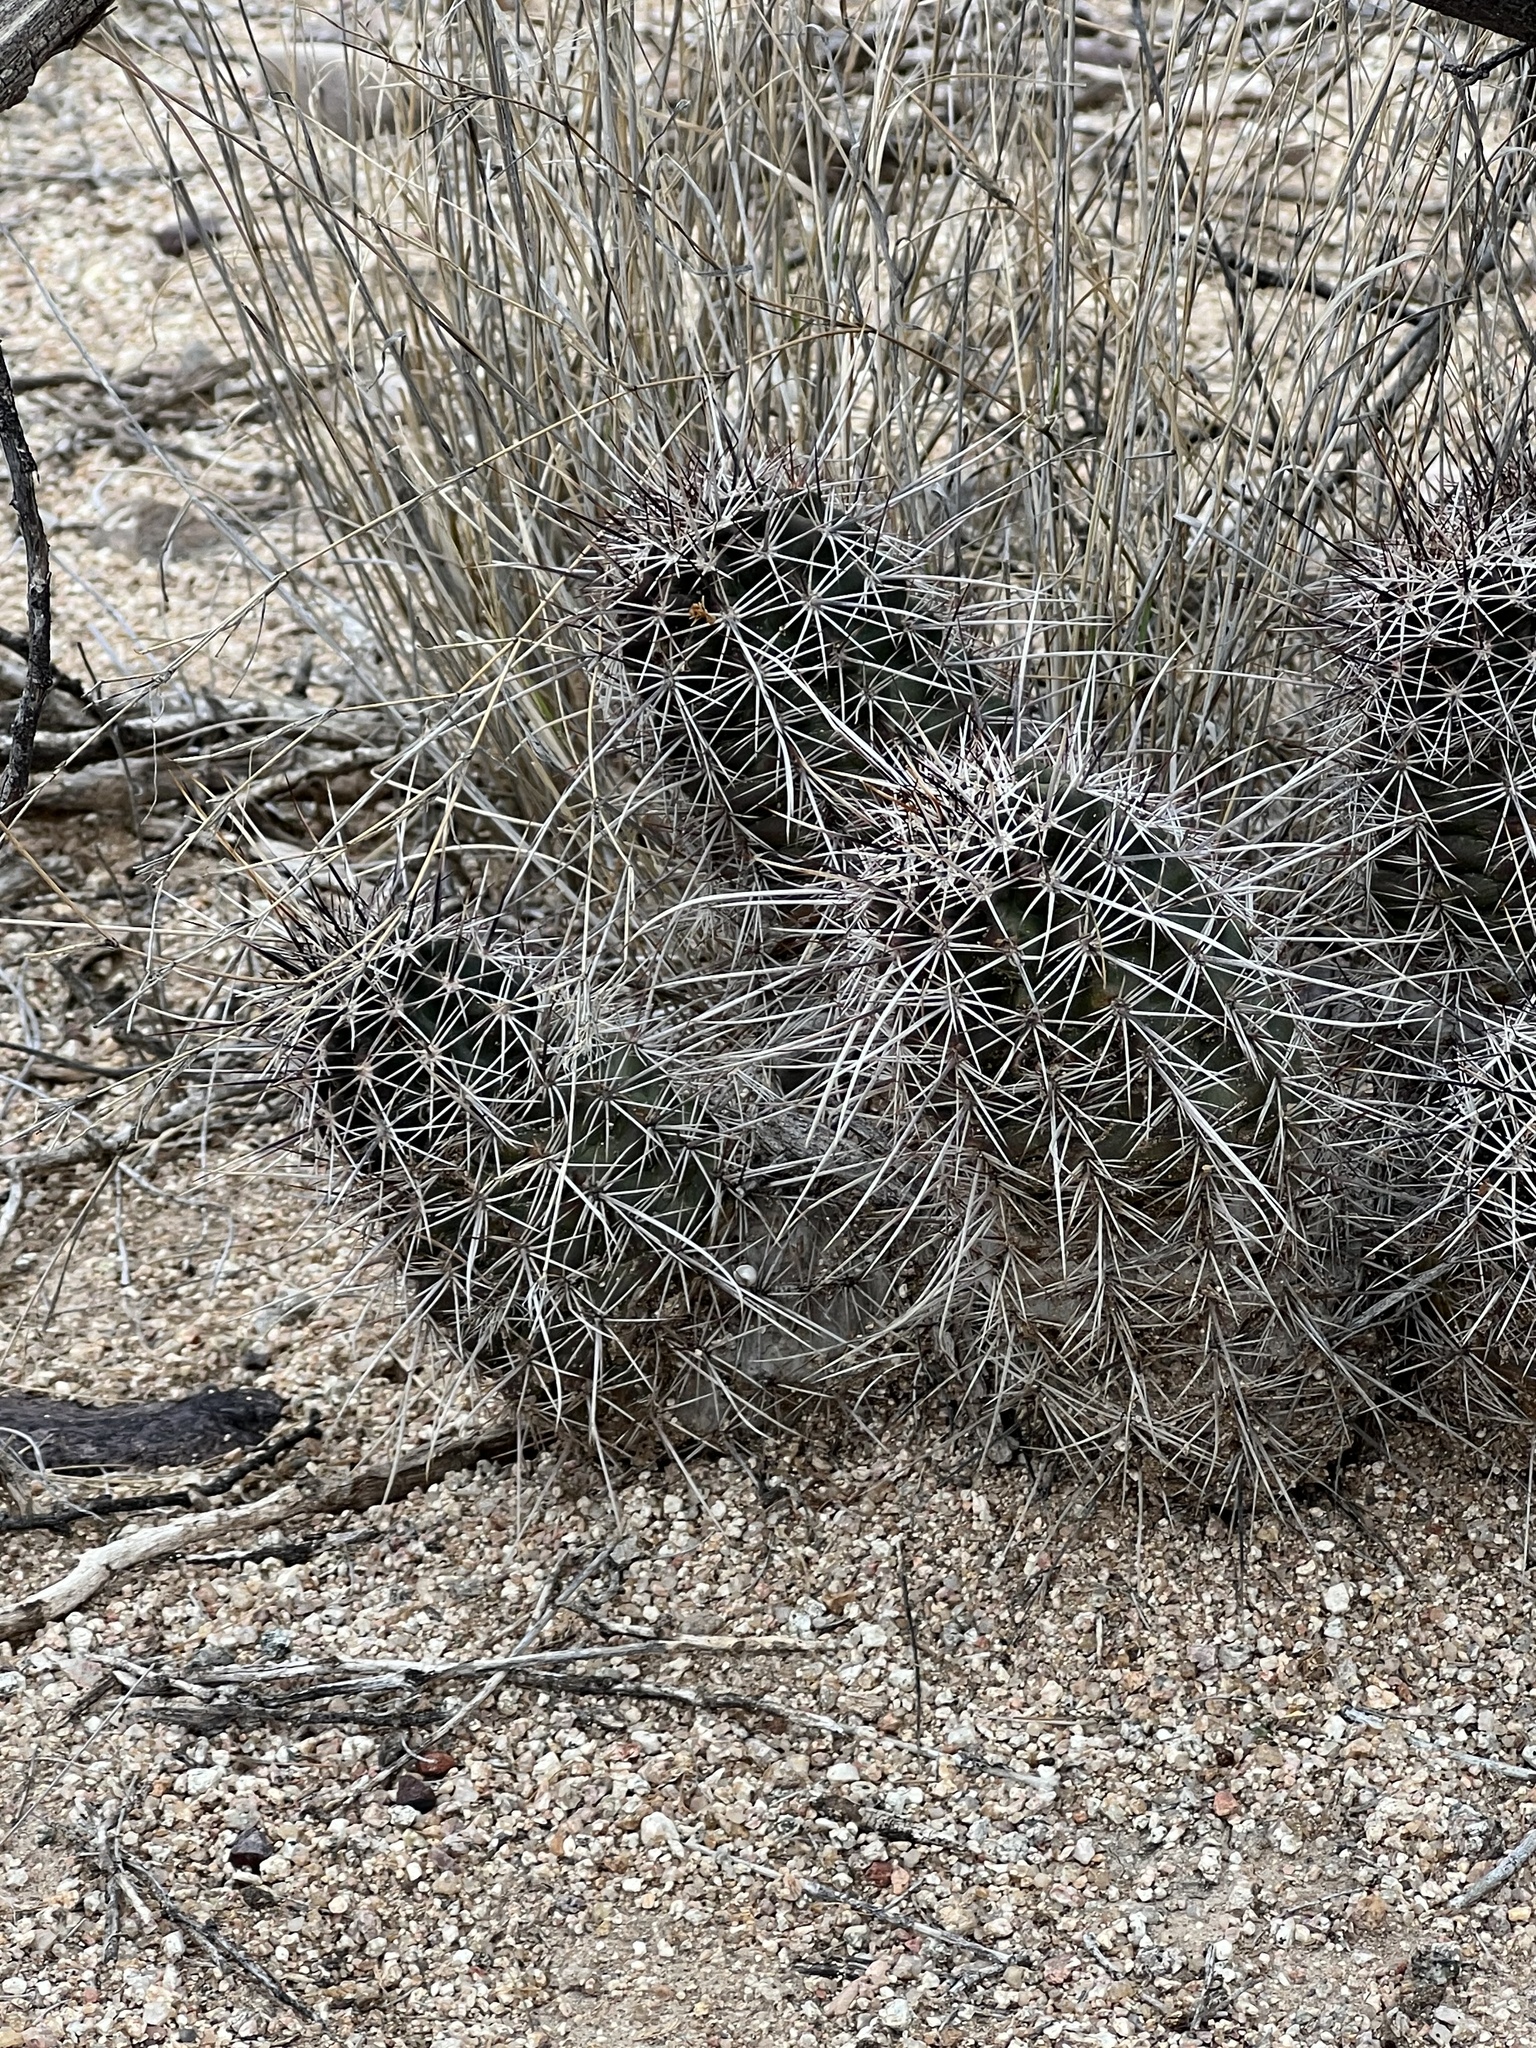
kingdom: Plantae
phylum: Tracheophyta
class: Magnoliopsida
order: Caryophyllales
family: Cactaceae
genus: Echinocereus
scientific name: Echinocereus fasciculatus
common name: Bundle hedgehog
